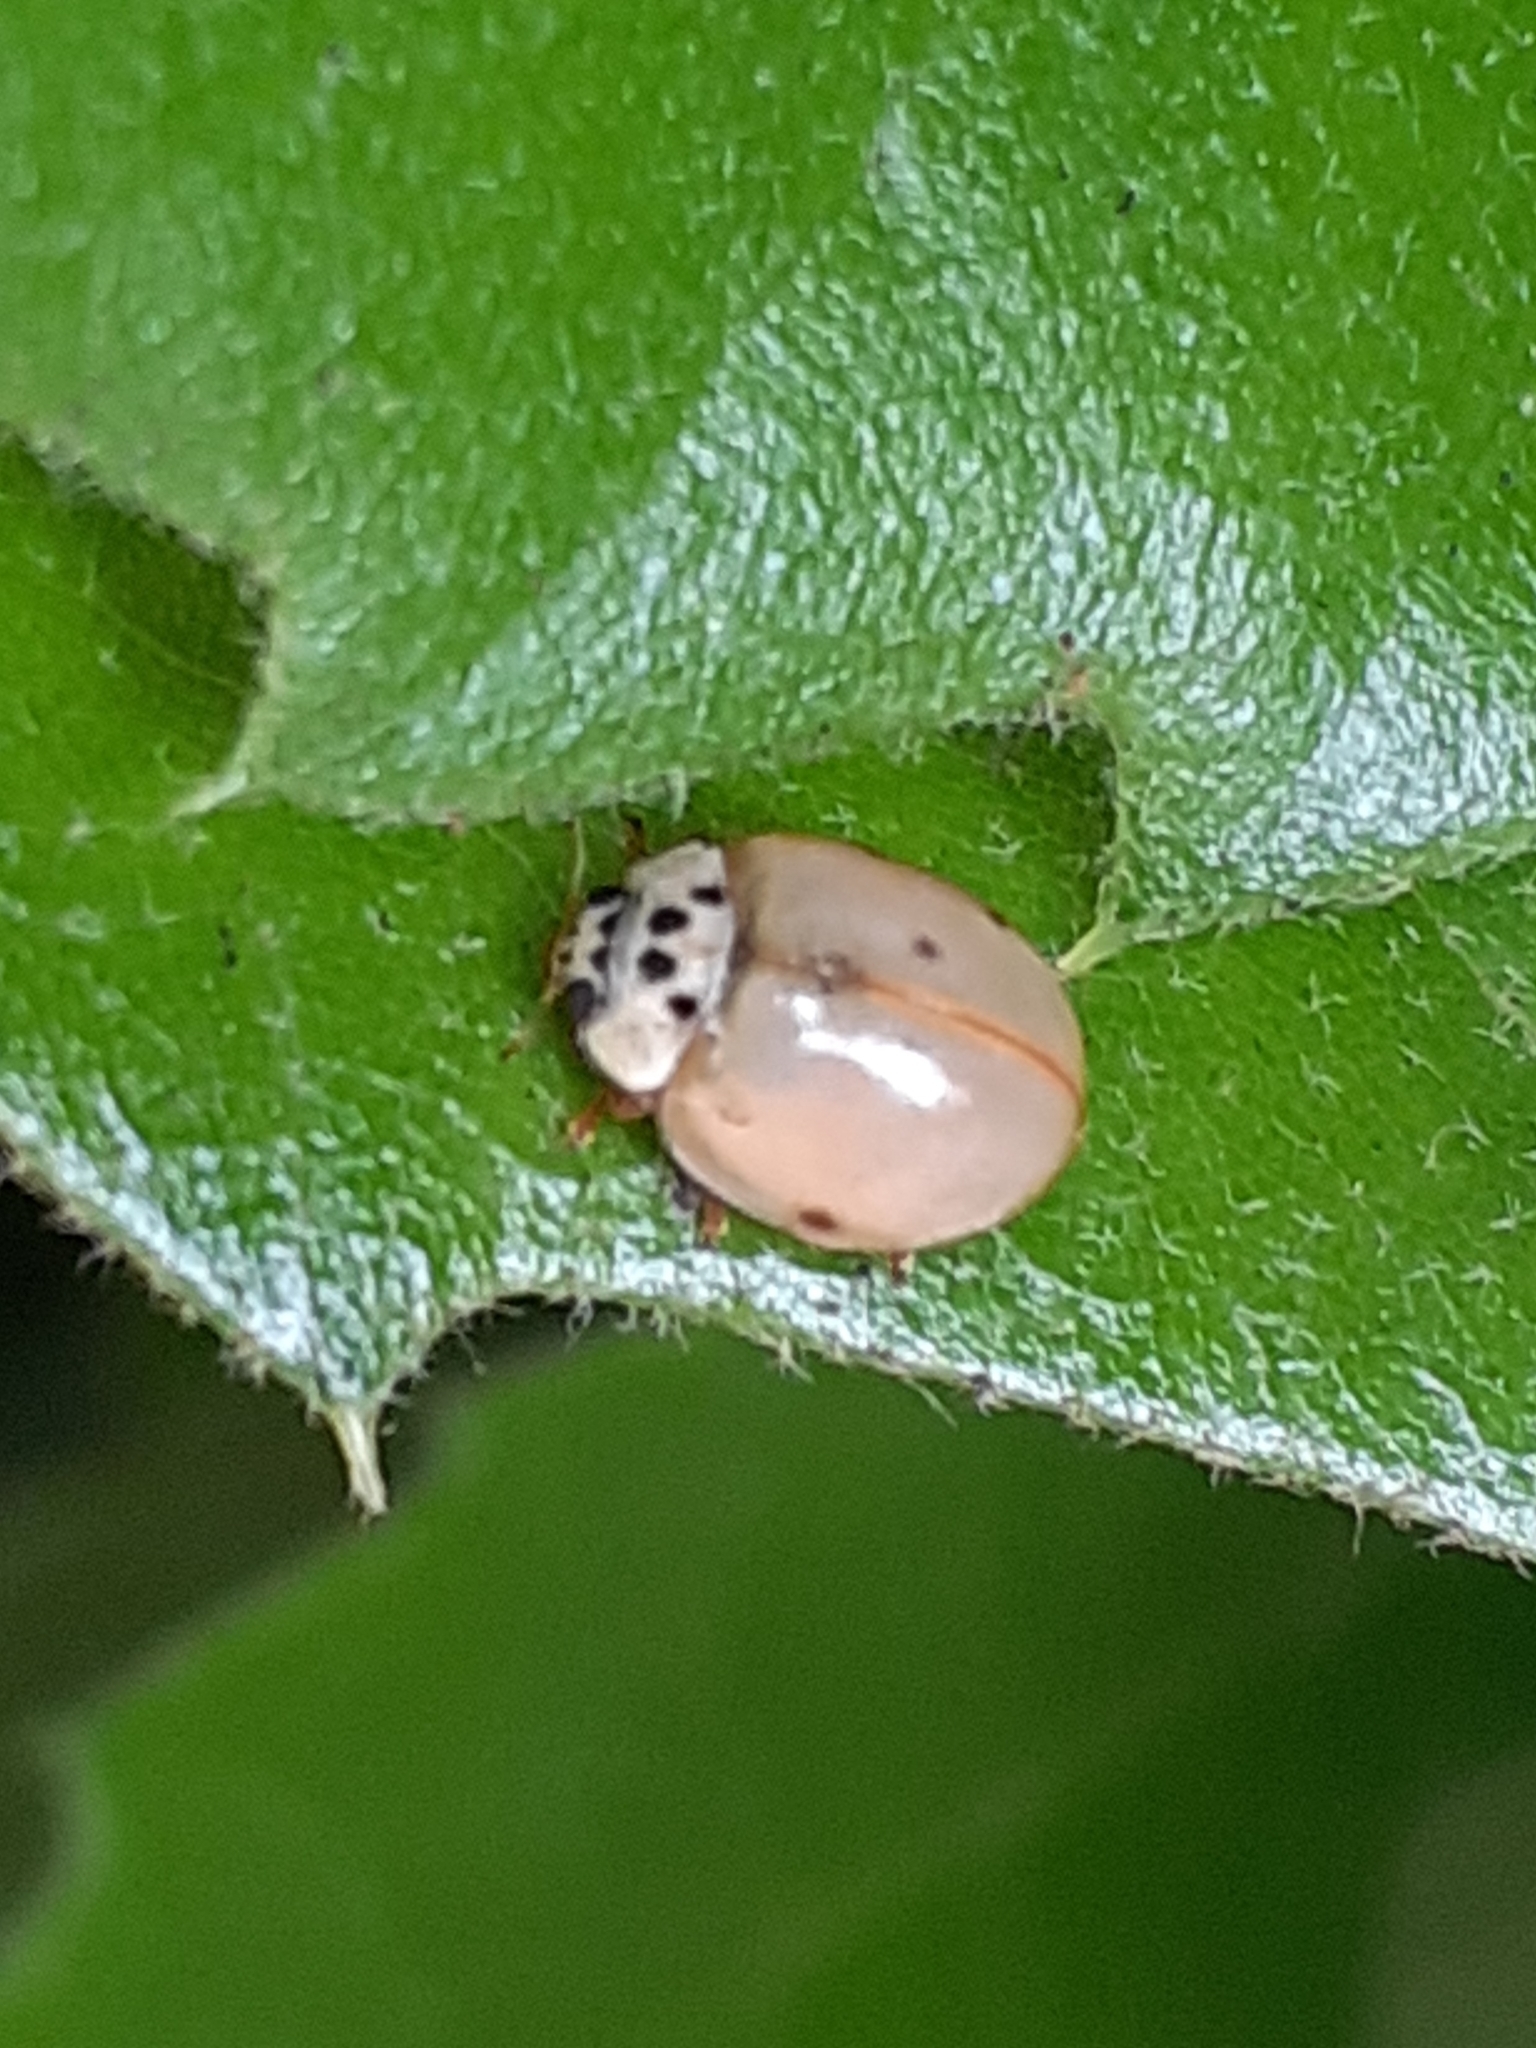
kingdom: Animalia
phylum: Arthropoda
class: Insecta
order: Coleoptera
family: Coccinellidae
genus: Adalia
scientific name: Adalia decempunctata
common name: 10-spot ladybird
